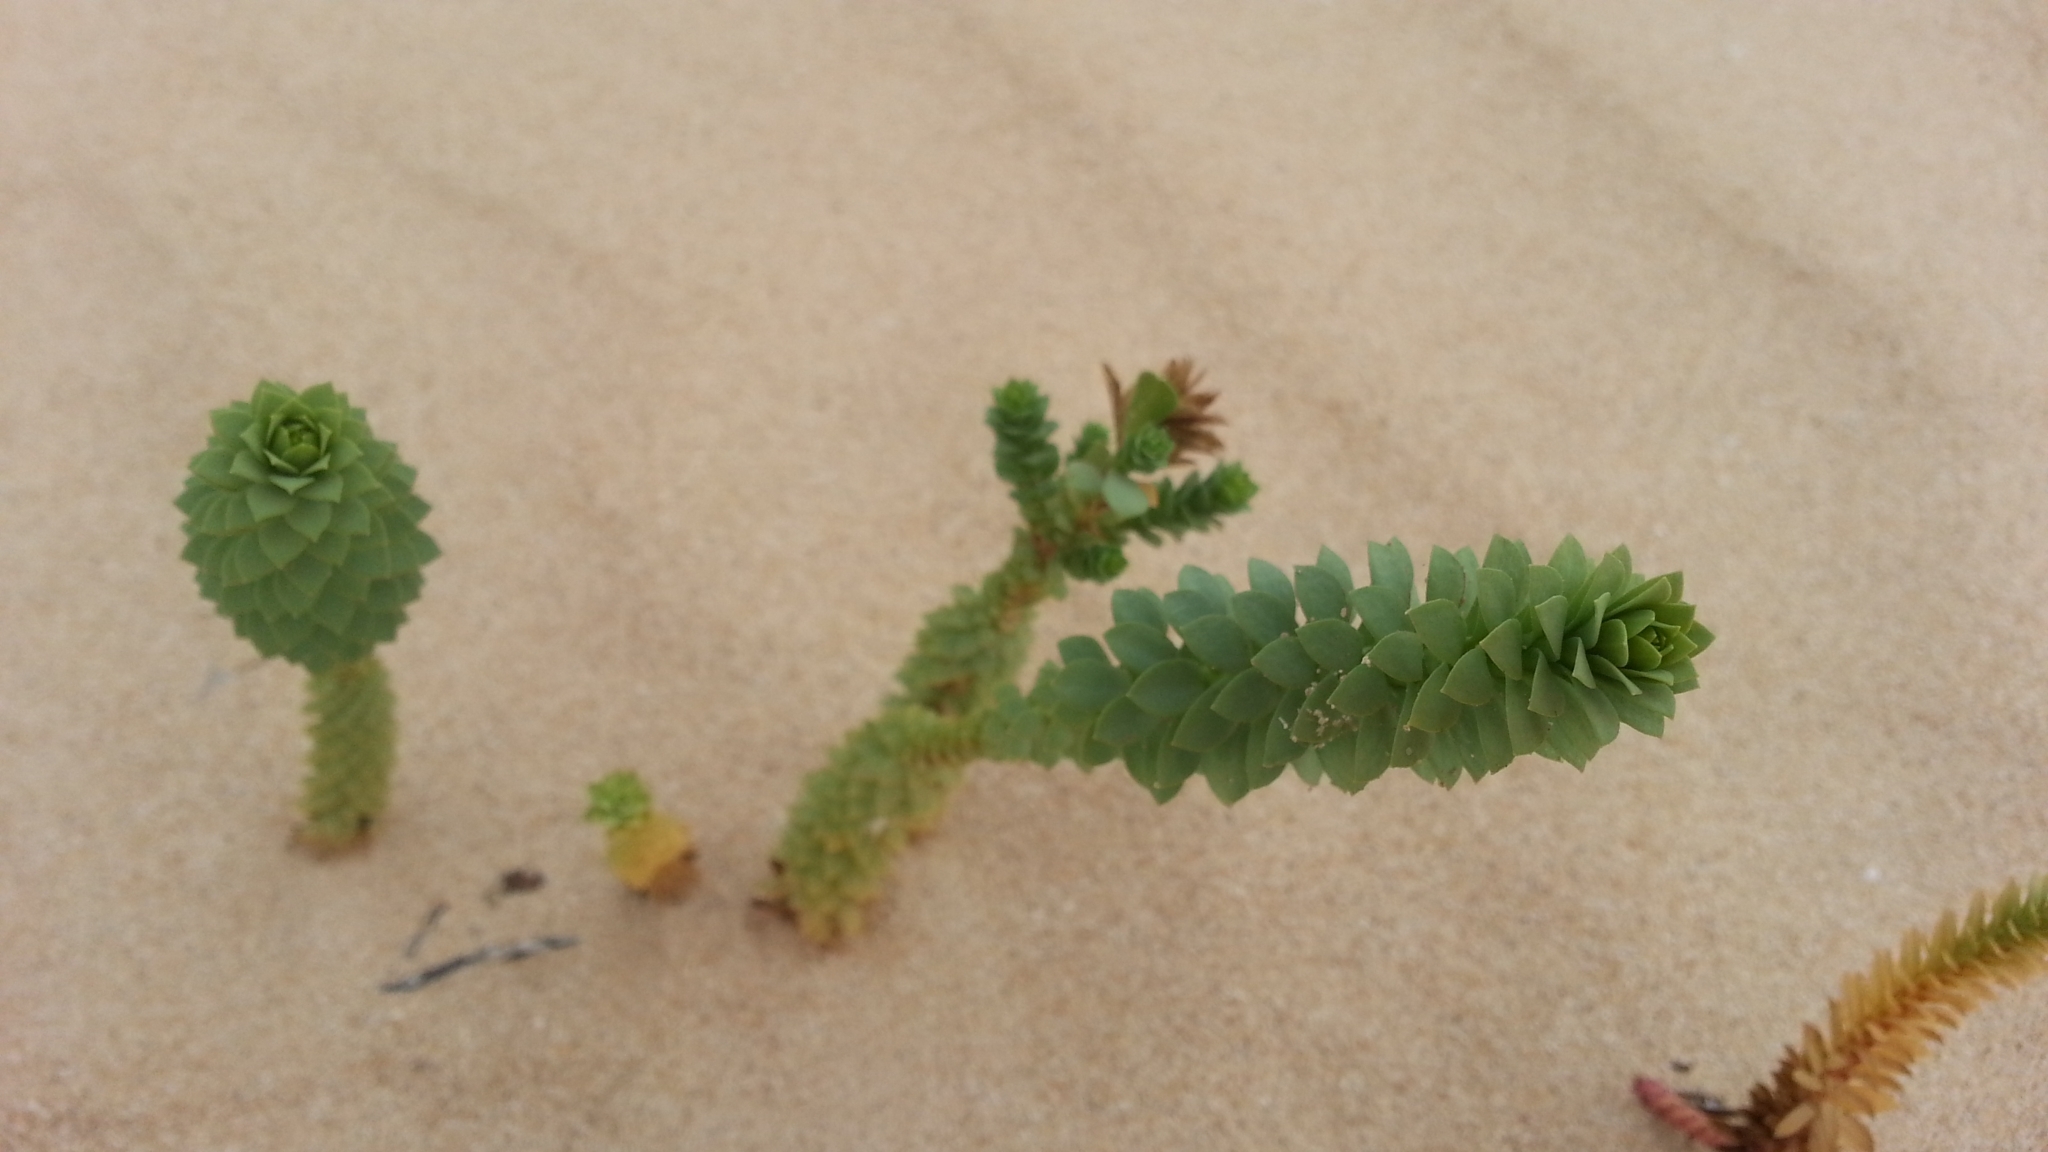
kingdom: Plantae
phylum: Tracheophyta
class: Magnoliopsida
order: Malpighiales
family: Euphorbiaceae
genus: Euphorbia
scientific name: Euphorbia paralias
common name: Sea spurge
